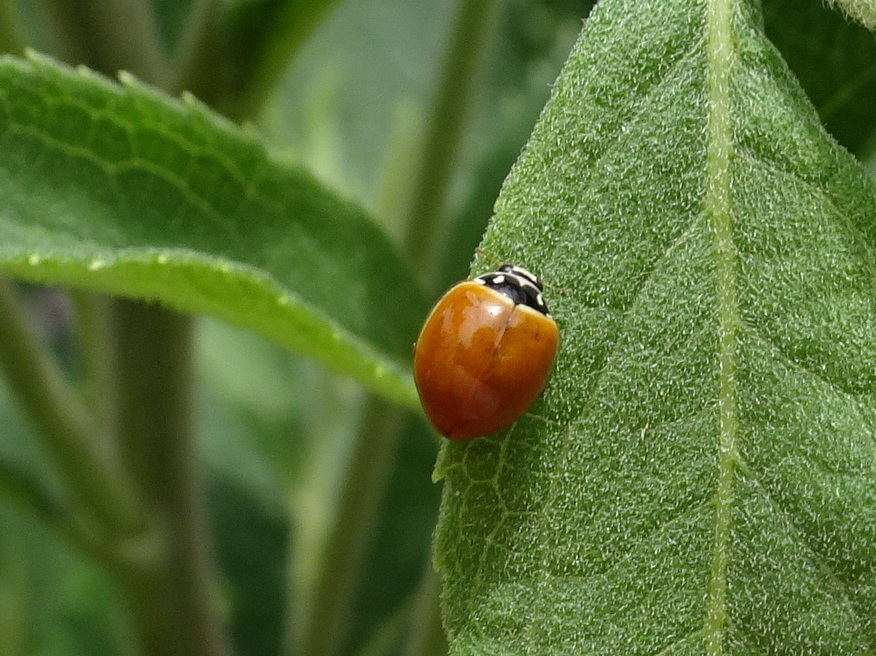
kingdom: Animalia
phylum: Arthropoda
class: Insecta
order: Coleoptera
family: Coccinellidae
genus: Cycloneda
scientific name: Cycloneda munda
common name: Polished lady beetle
